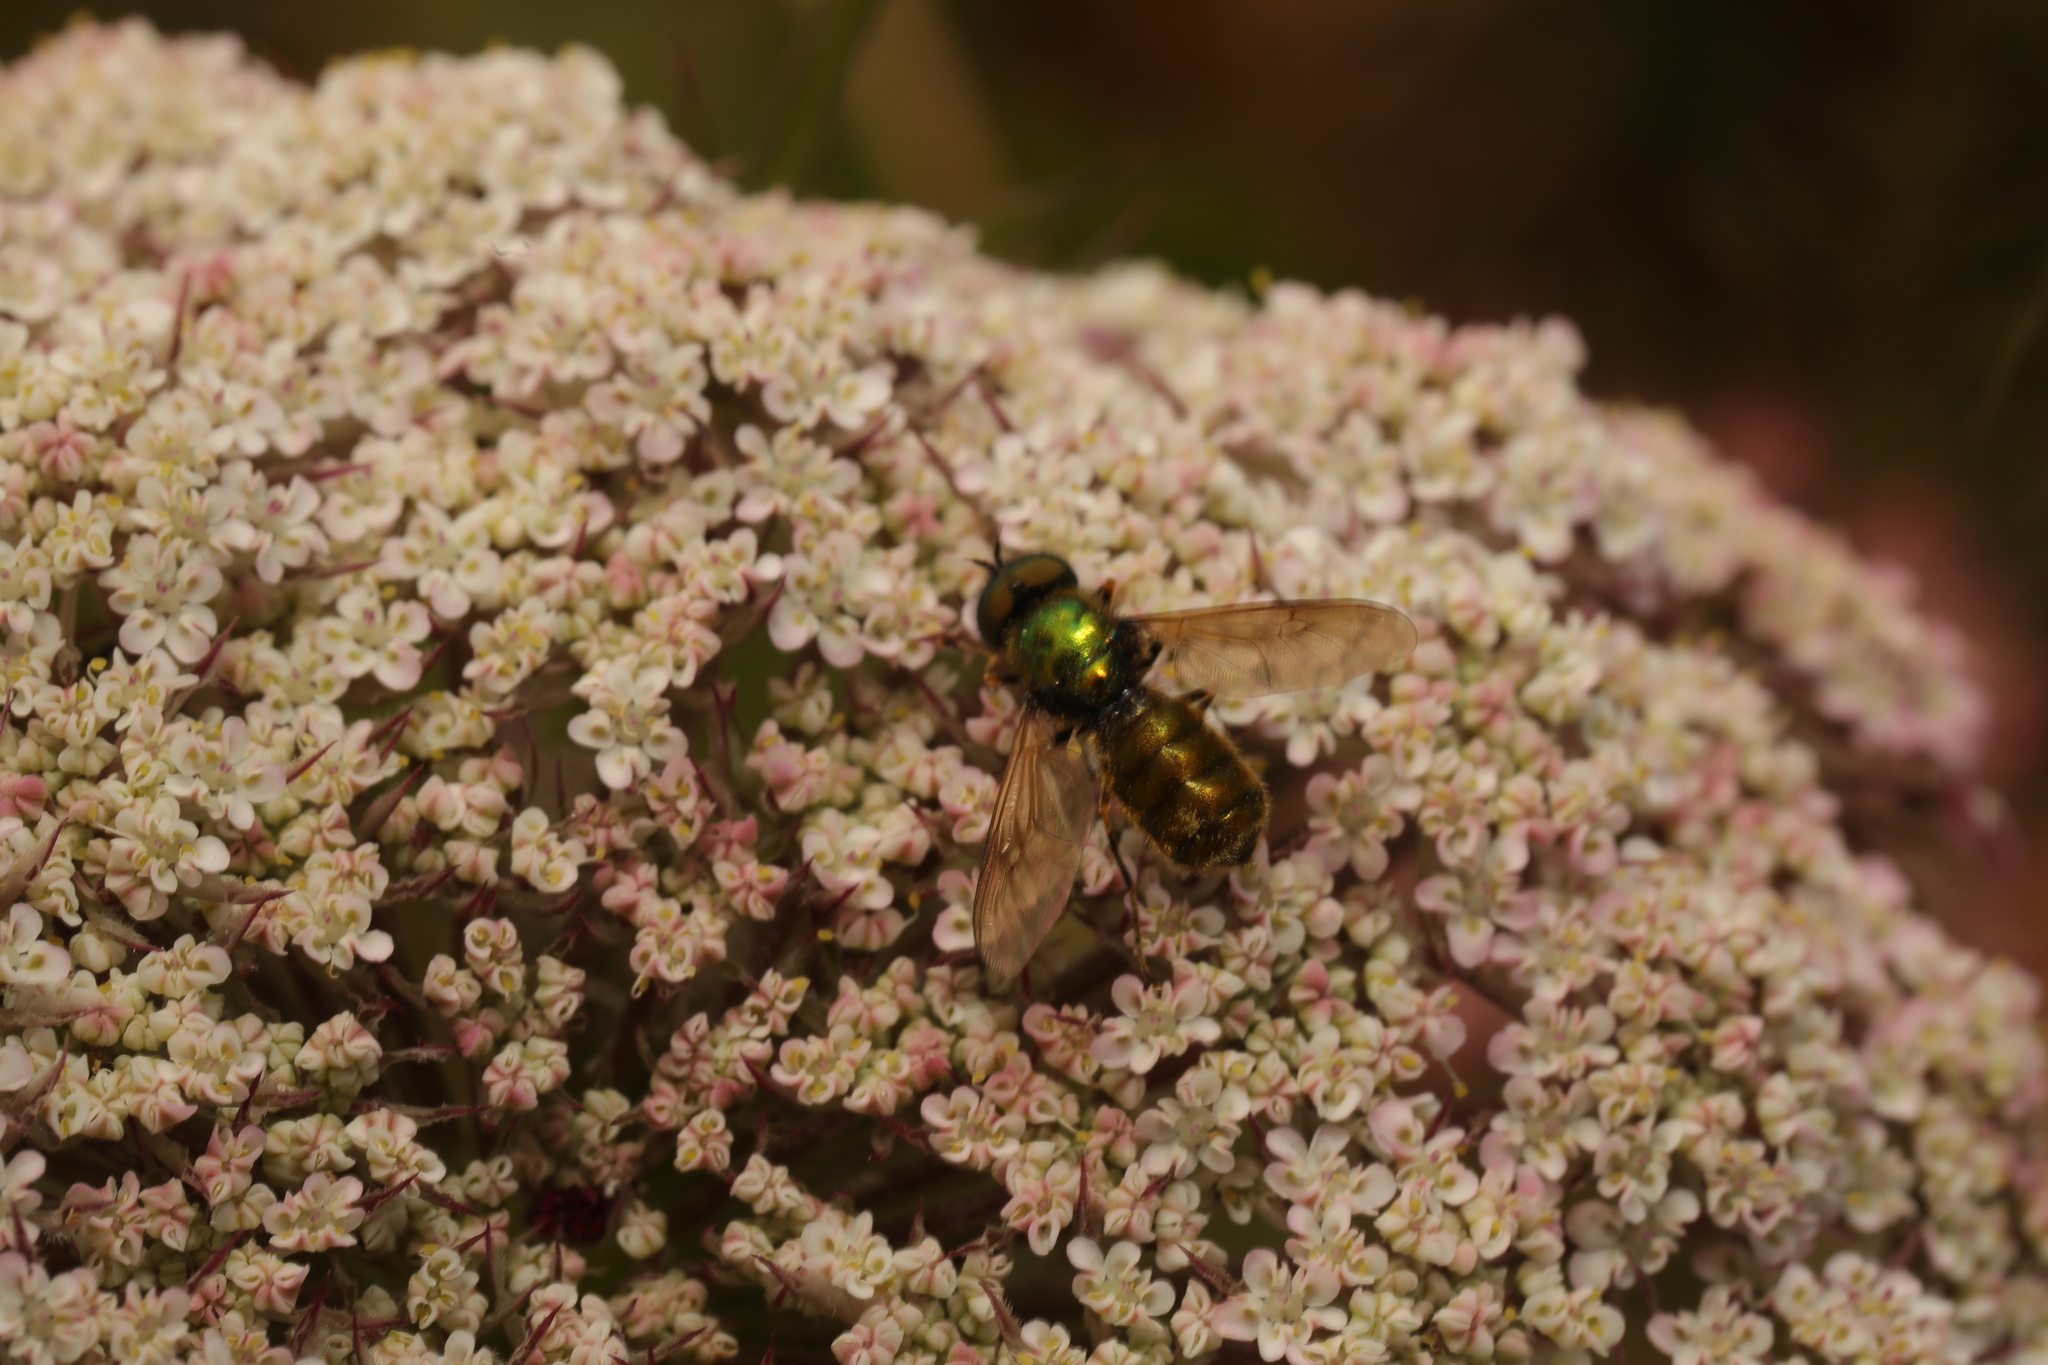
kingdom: Animalia
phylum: Arthropoda
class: Insecta
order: Diptera
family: Stratiomyidae
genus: Chloromyia
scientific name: Chloromyia formosa
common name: Soldier fly
